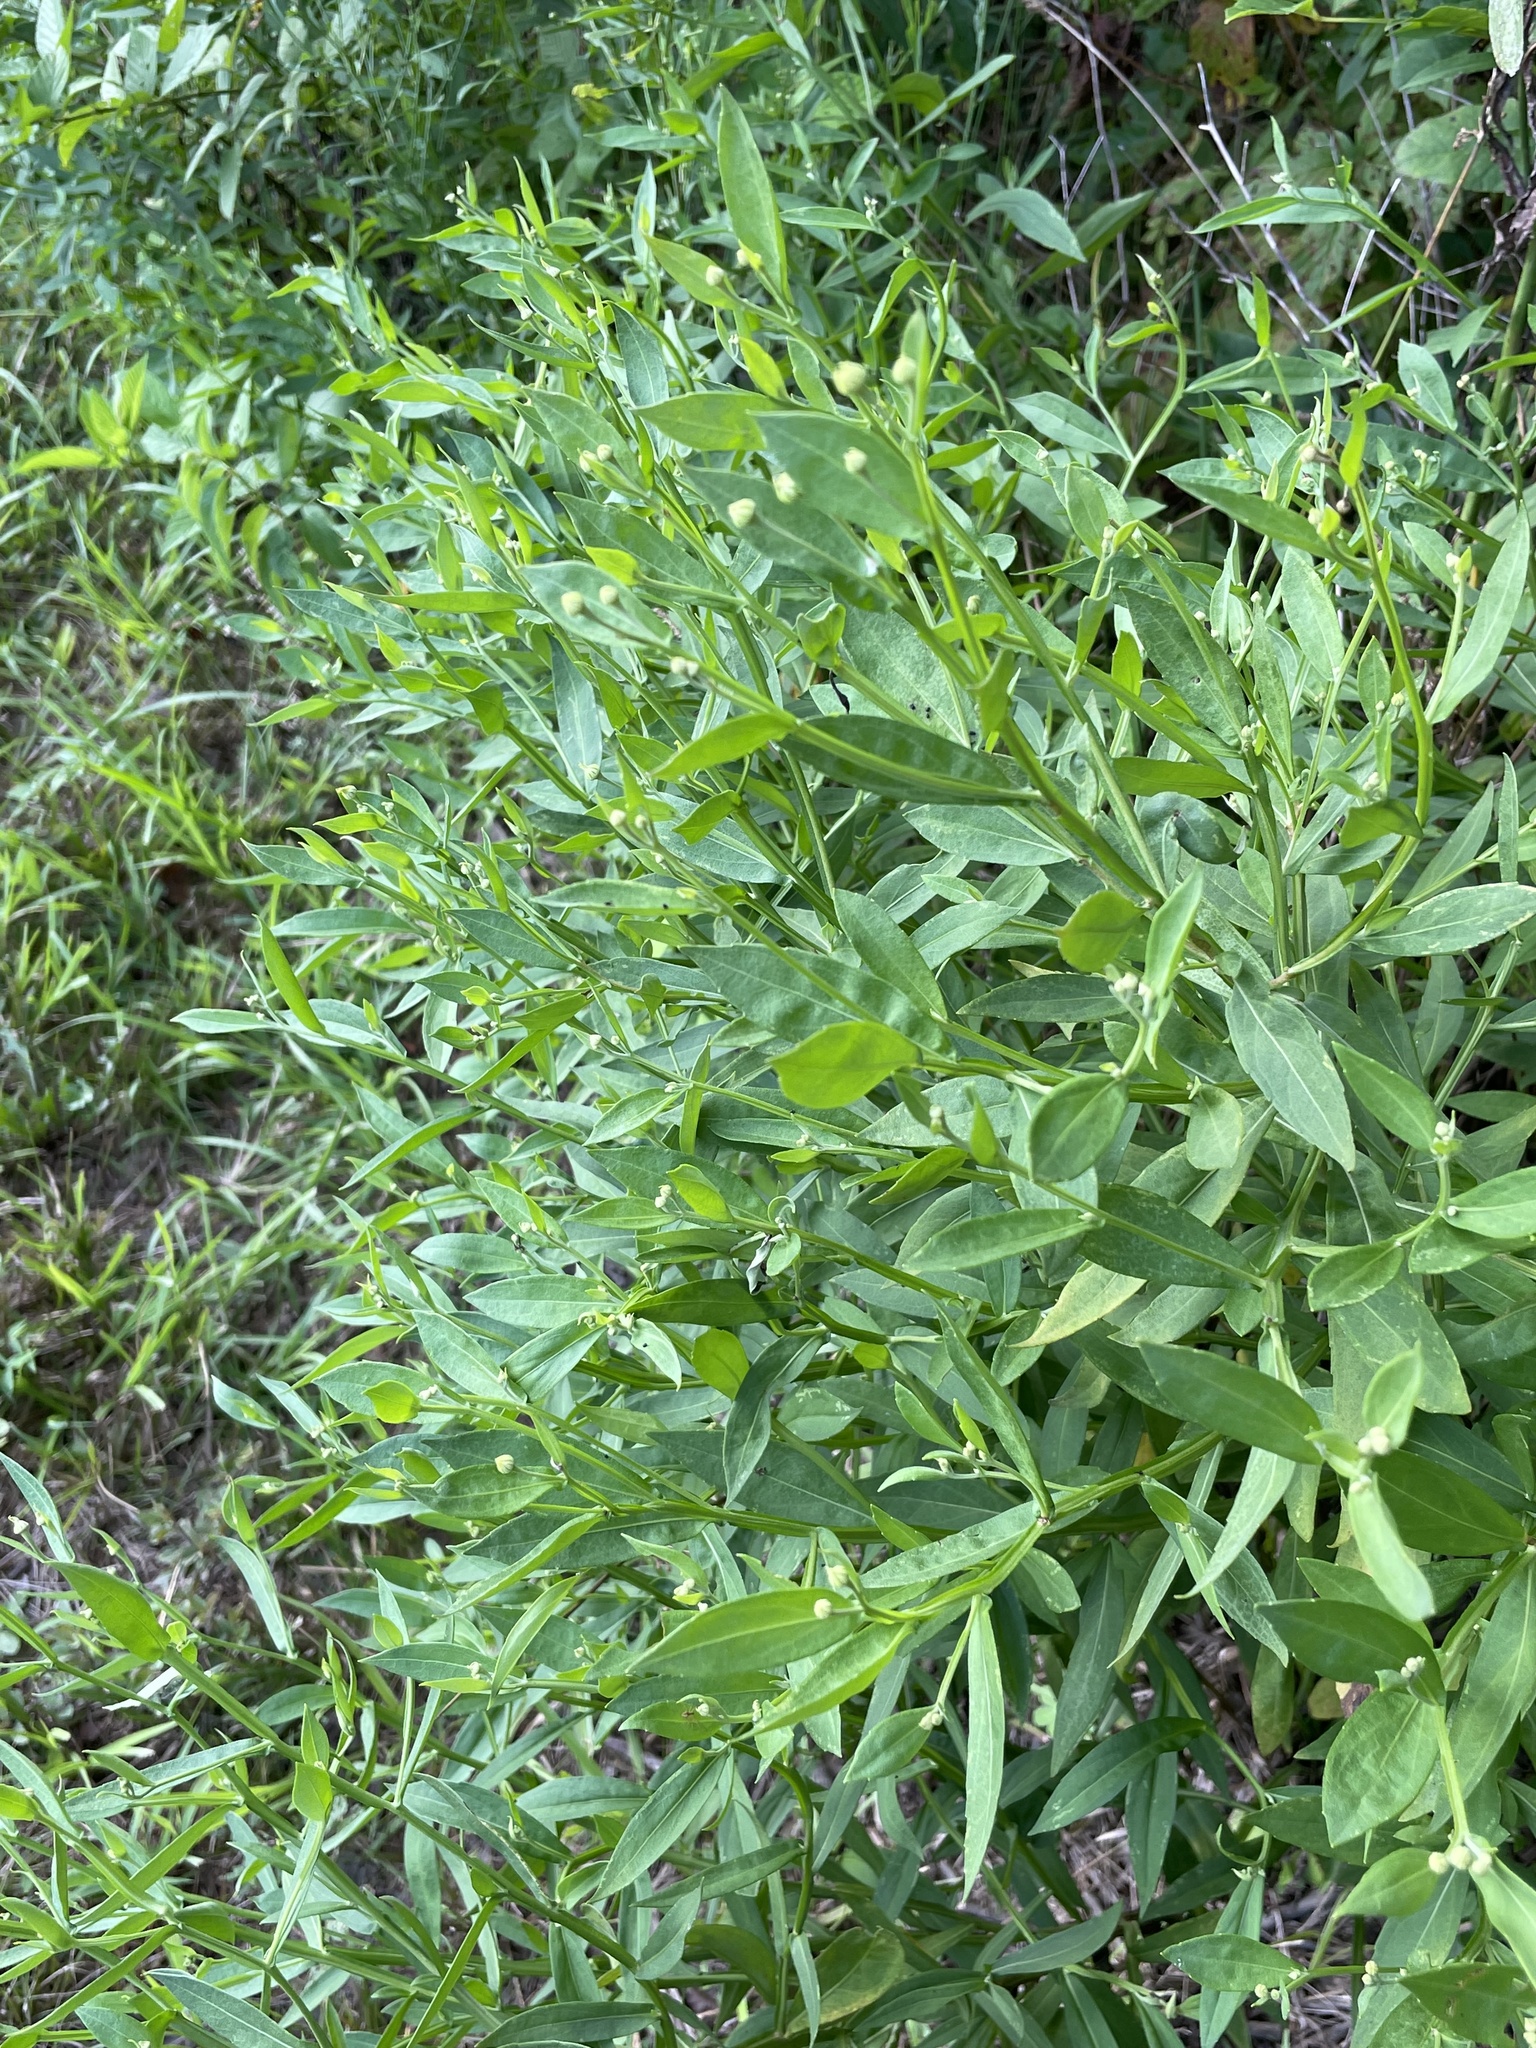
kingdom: Plantae
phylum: Tracheophyta
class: Magnoliopsida
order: Asterales
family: Asteraceae
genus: Helenium
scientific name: Helenium autumnale
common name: Sneezeweed
